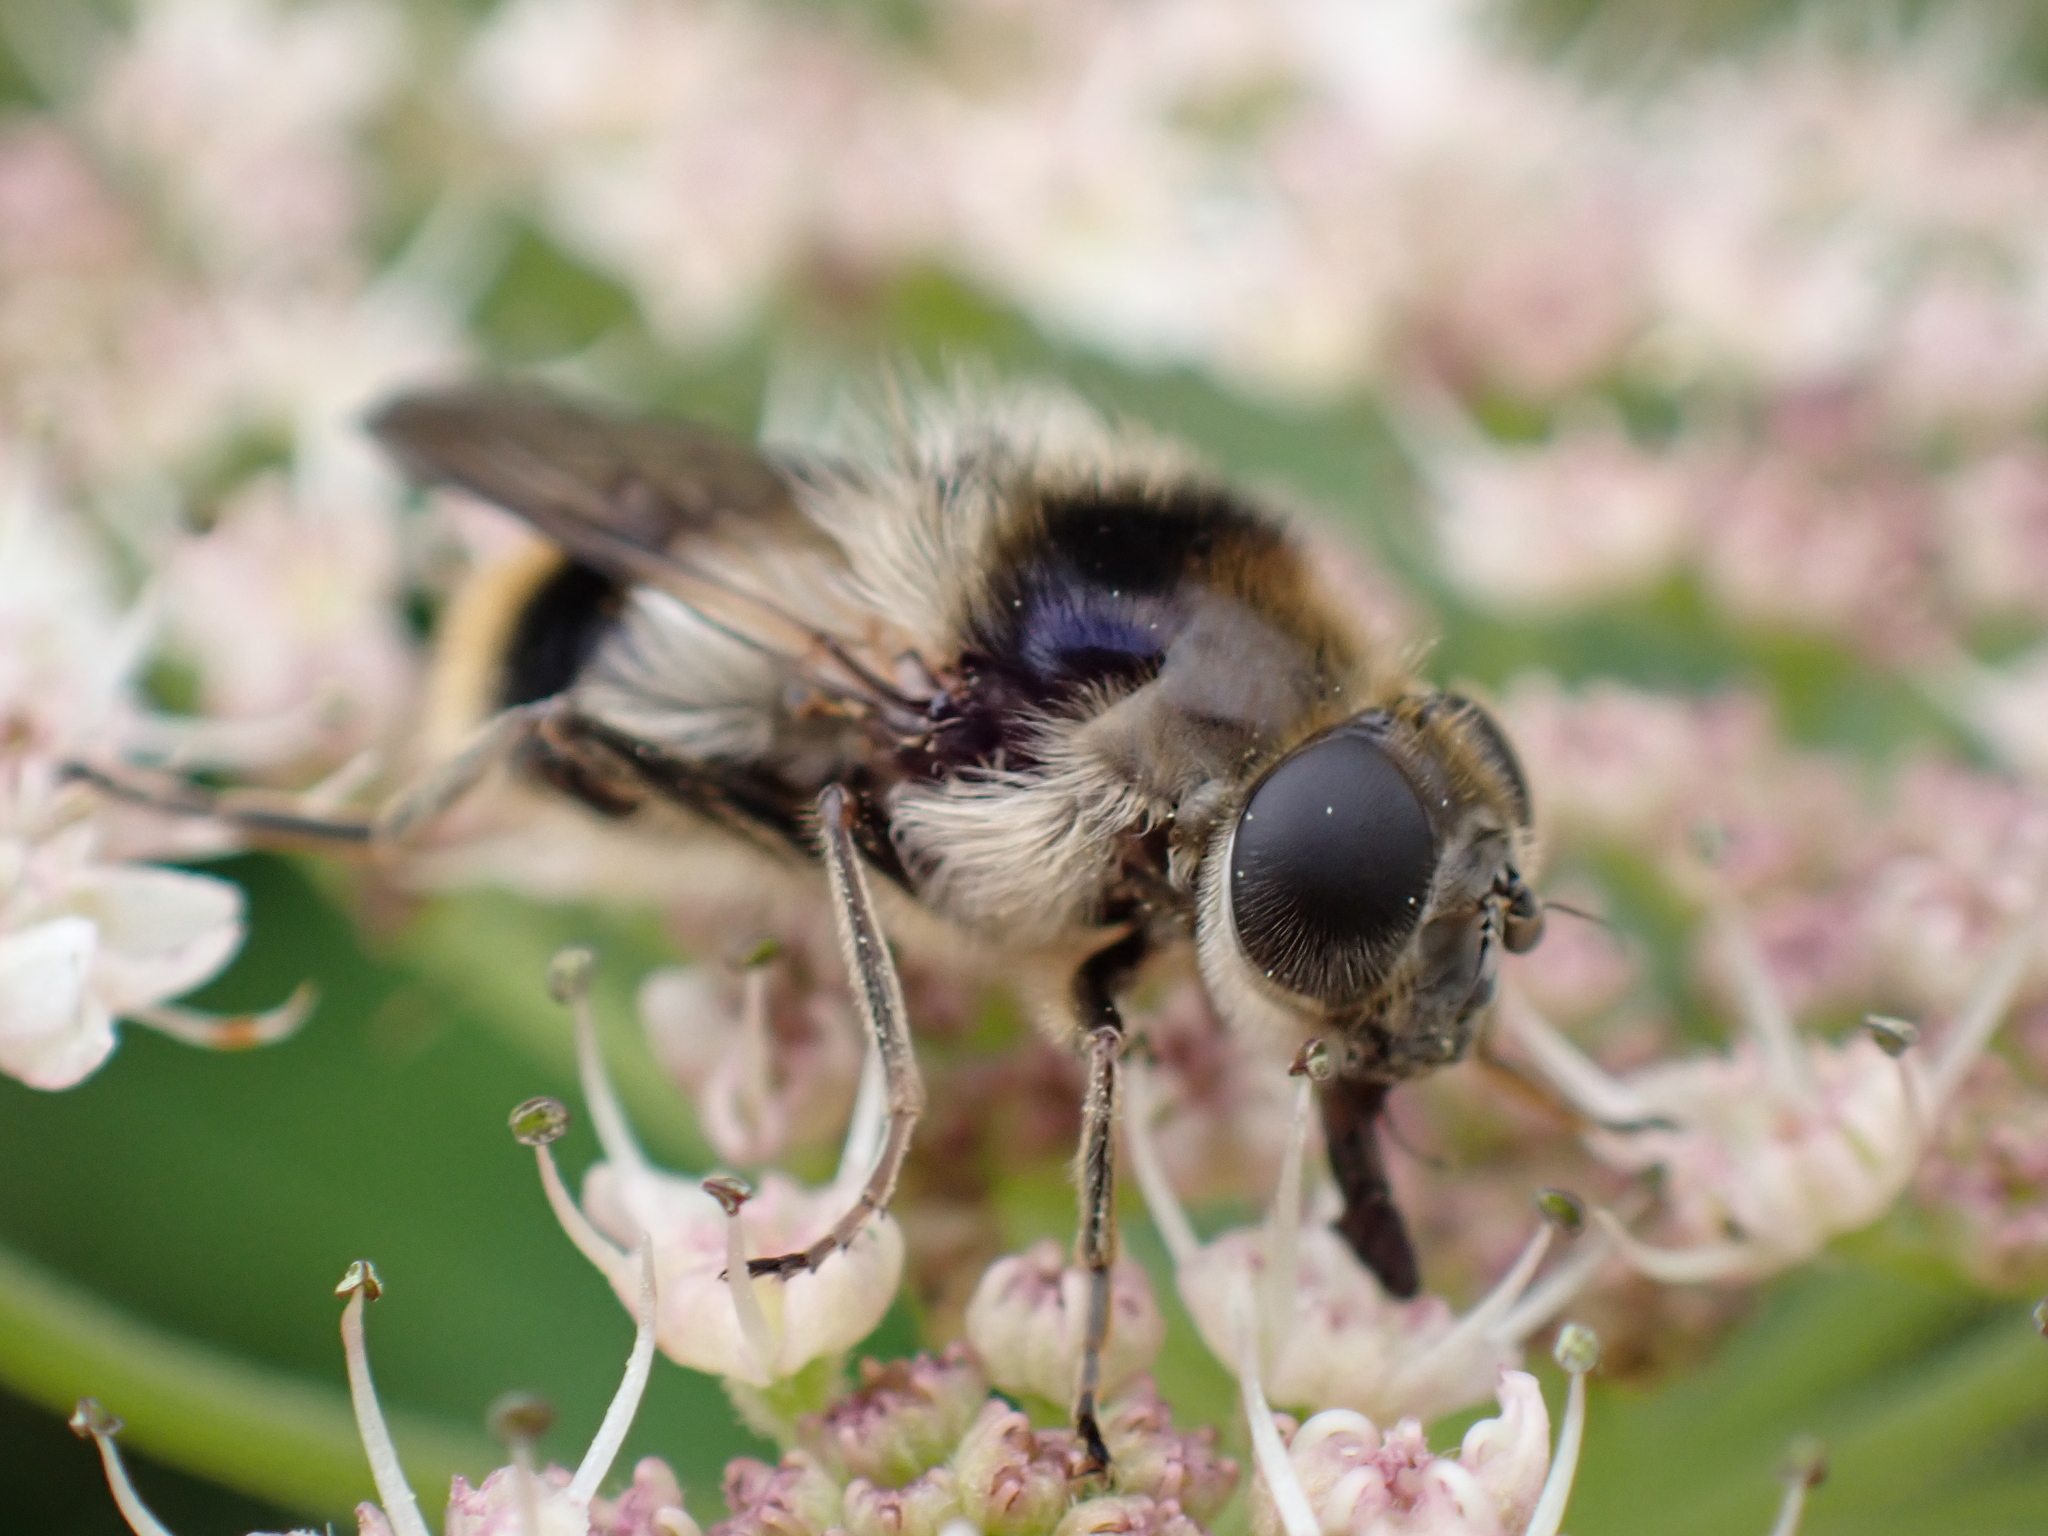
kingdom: Animalia
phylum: Arthropoda
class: Insecta
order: Diptera
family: Syrphidae
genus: Cheilosia
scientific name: Cheilosia illustrata
